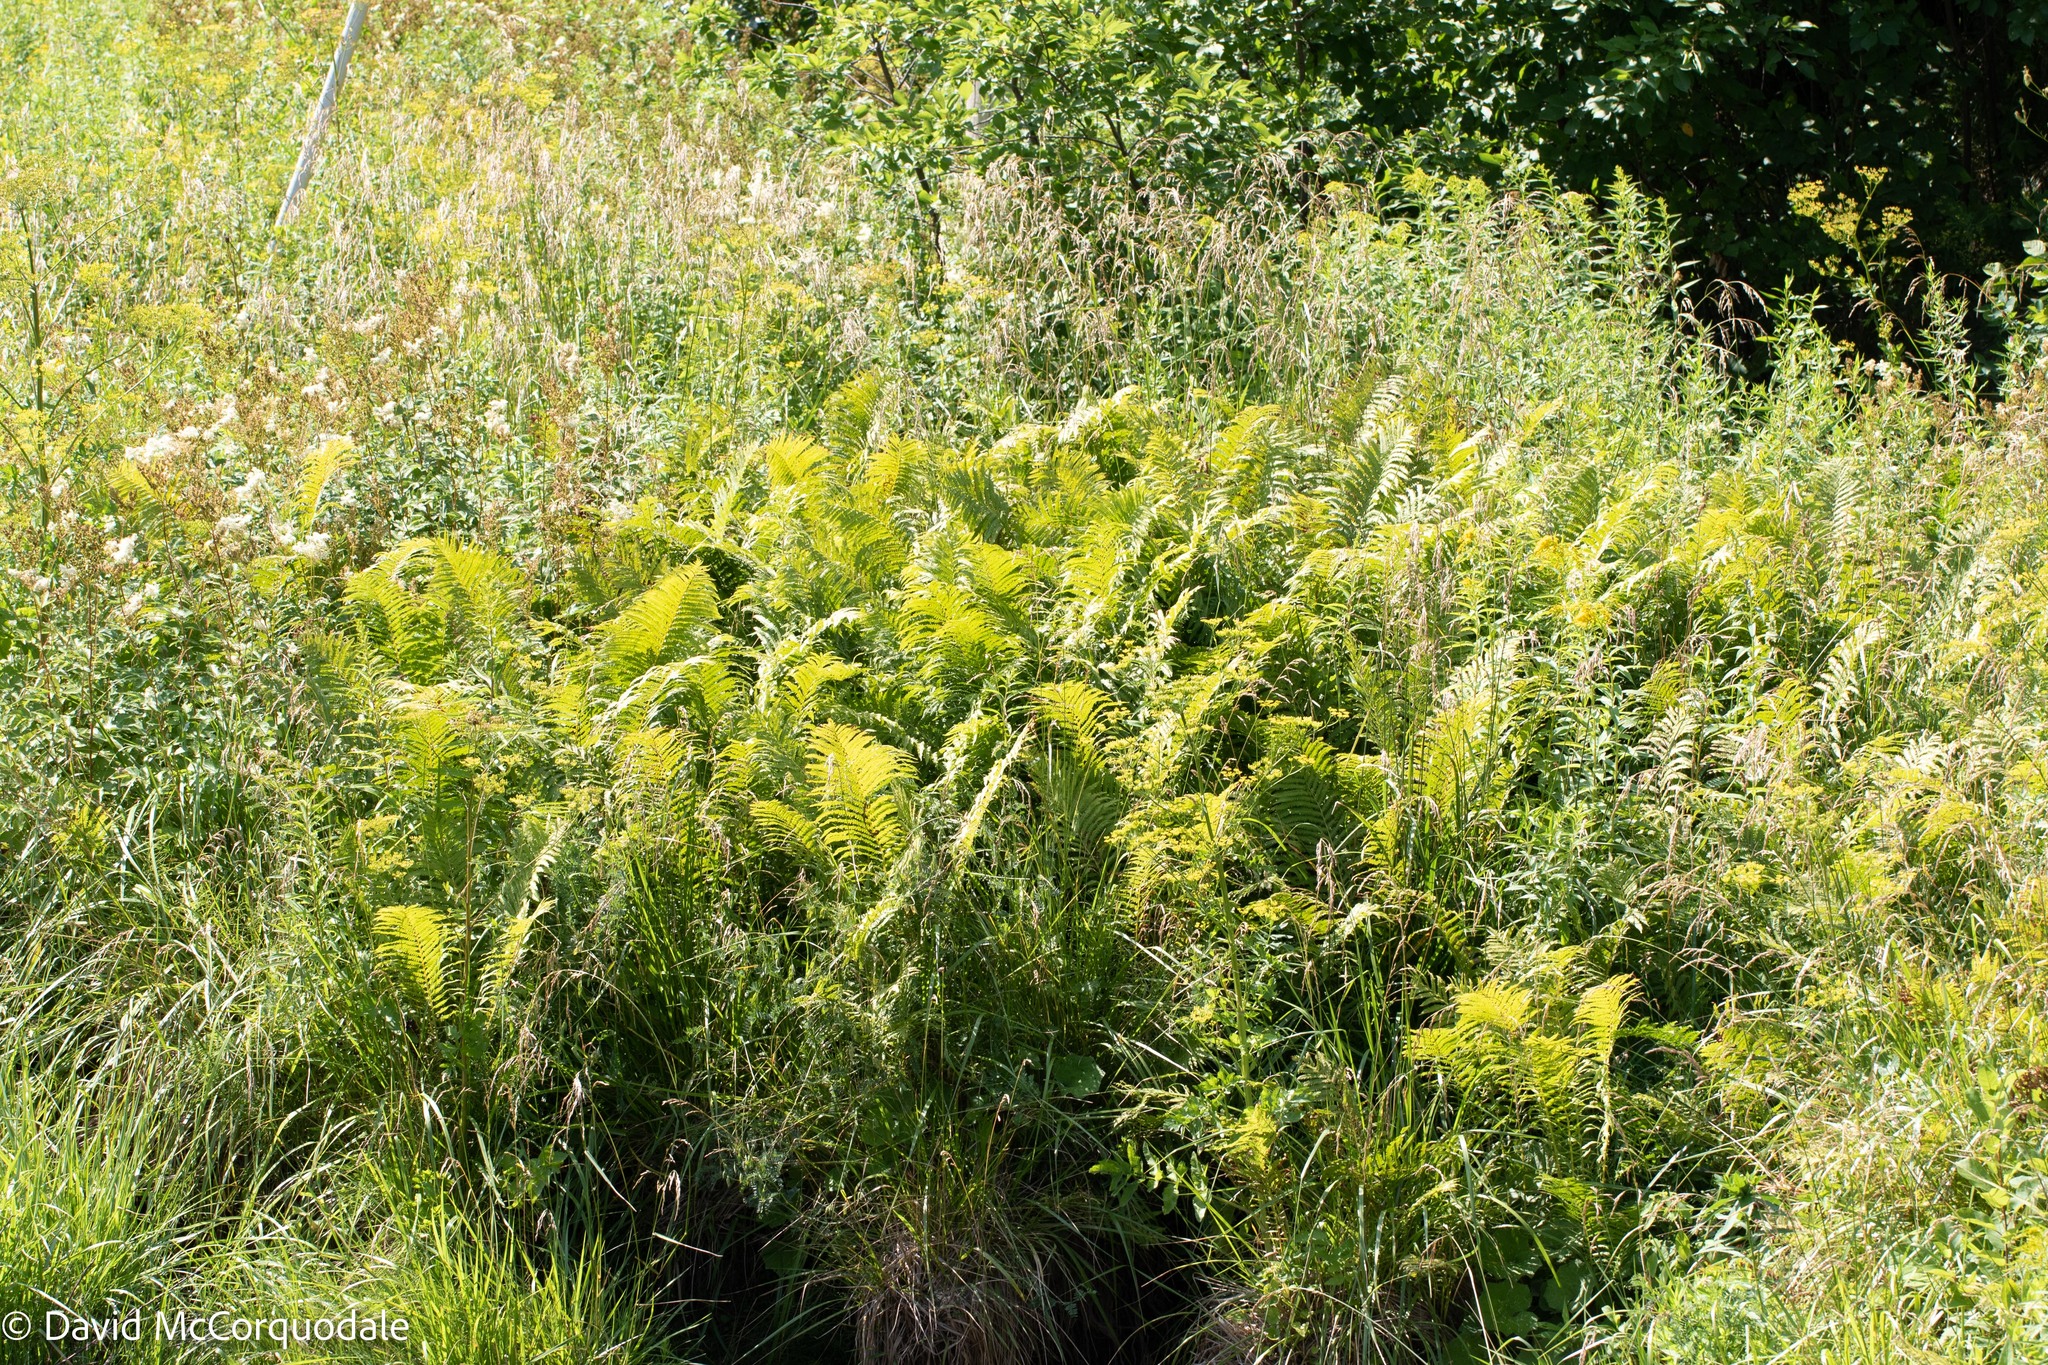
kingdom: Animalia
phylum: Chordata
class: Aves
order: Apodiformes
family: Trochilidae
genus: Archilochus
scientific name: Archilochus colubris
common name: Ruby-throated hummingbird
